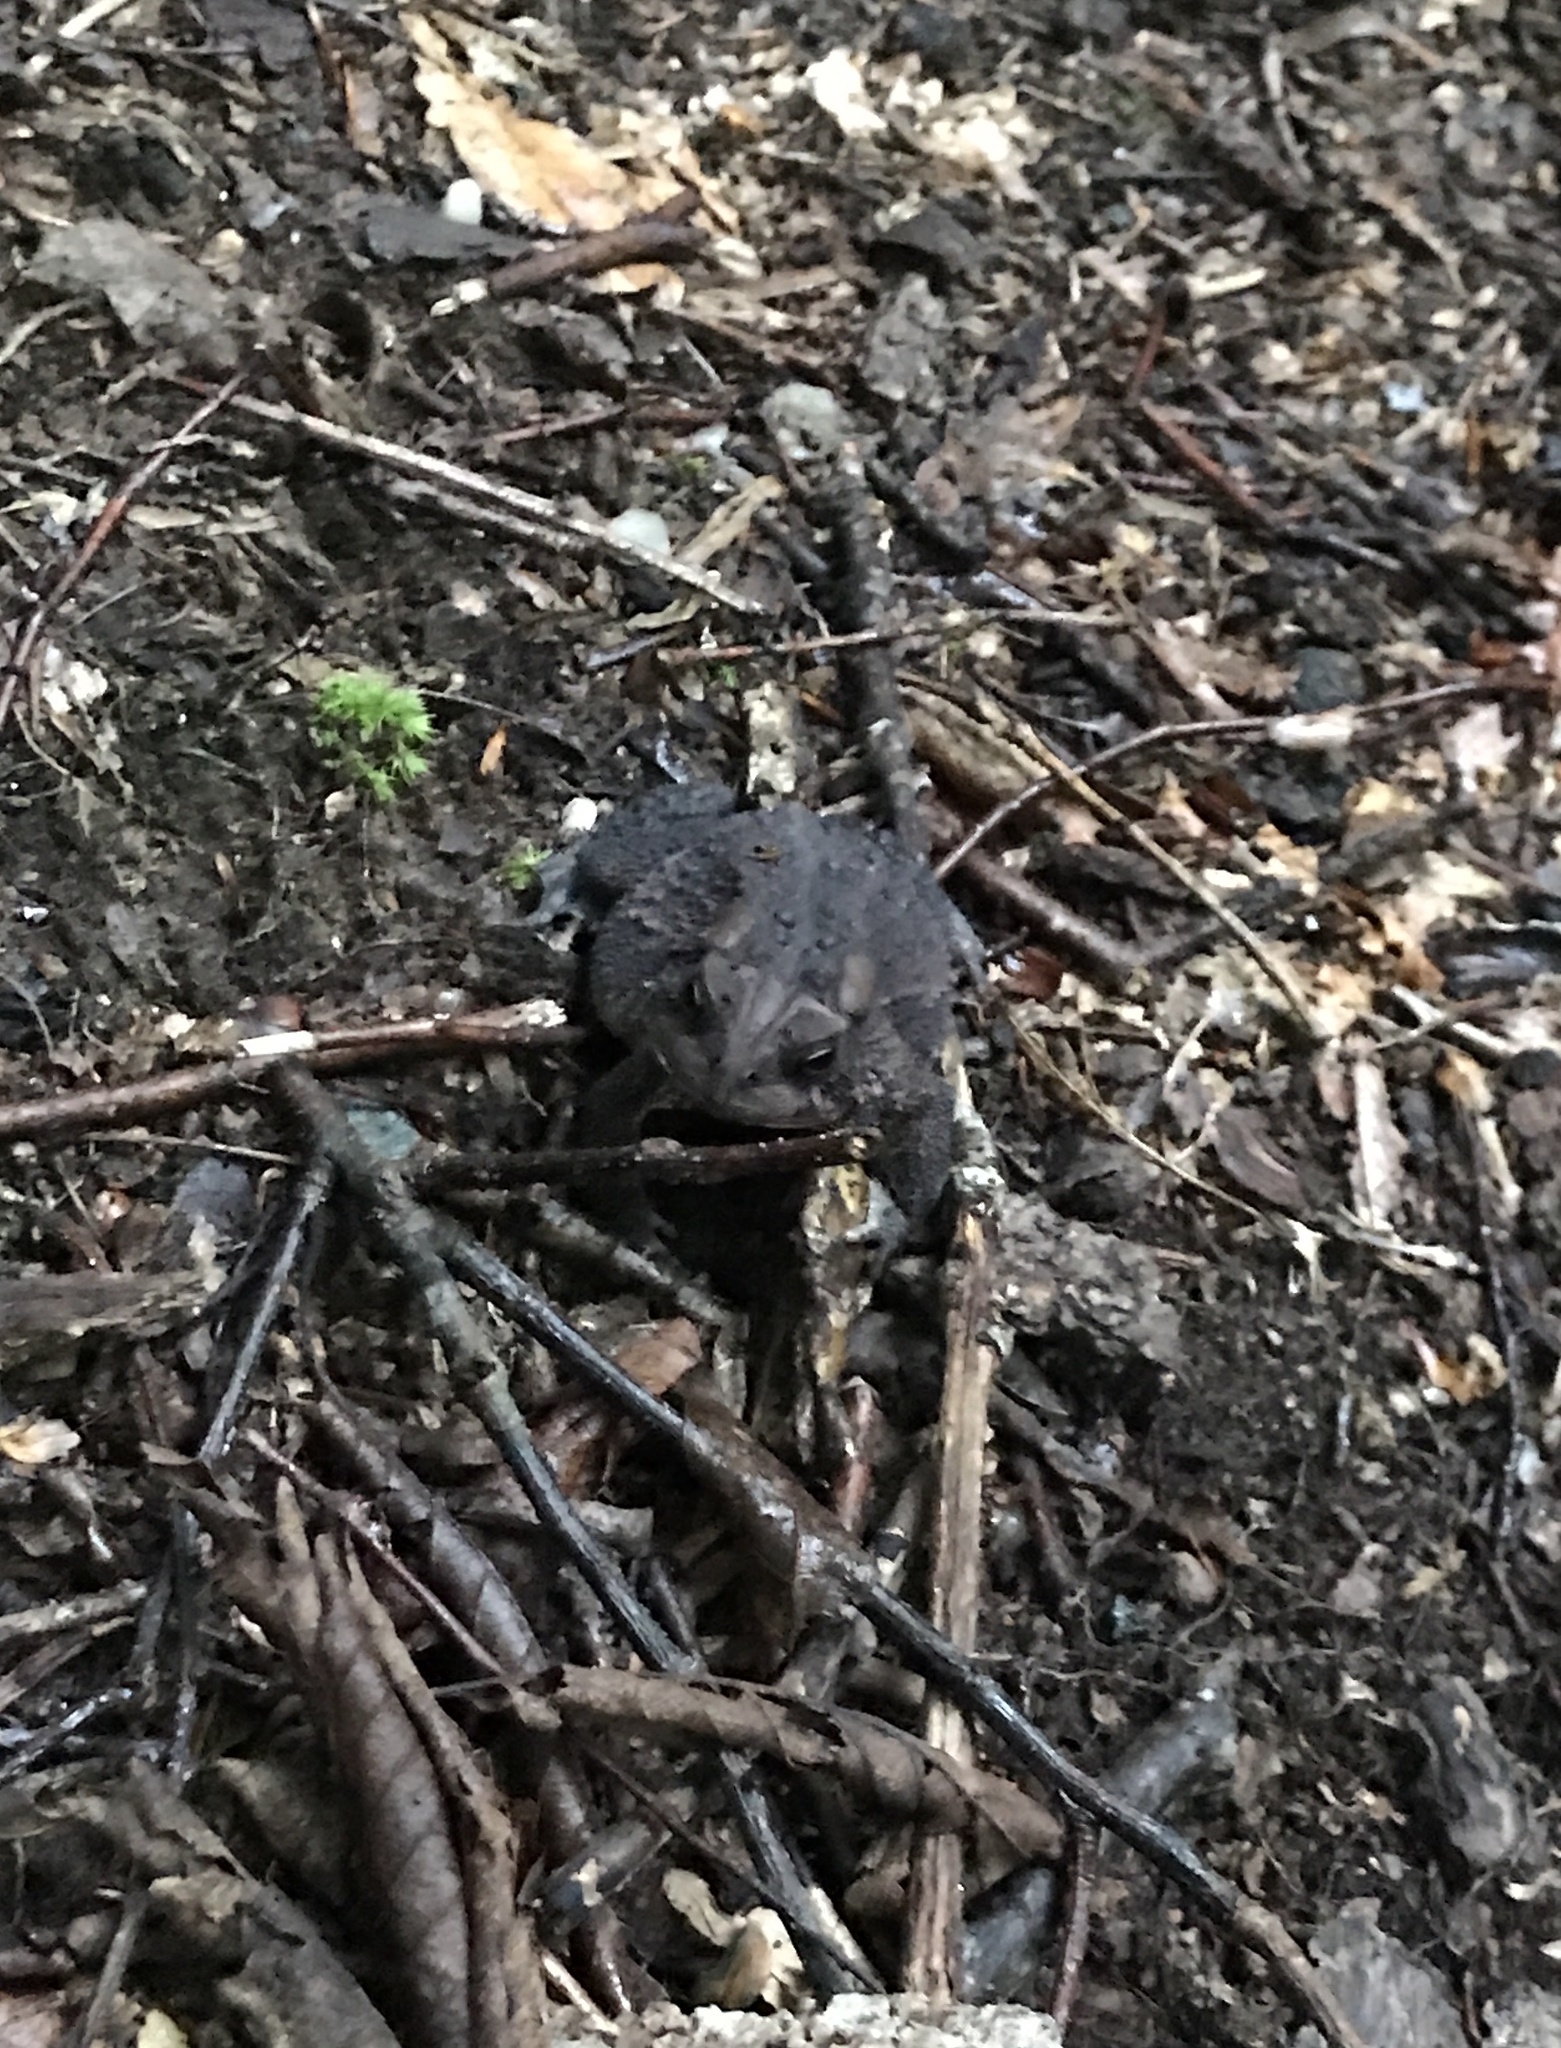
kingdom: Animalia
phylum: Chordata
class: Amphibia
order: Anura
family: Bufonidae
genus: Anaxyrus
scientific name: Anaxyrus americanus
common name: American toad
